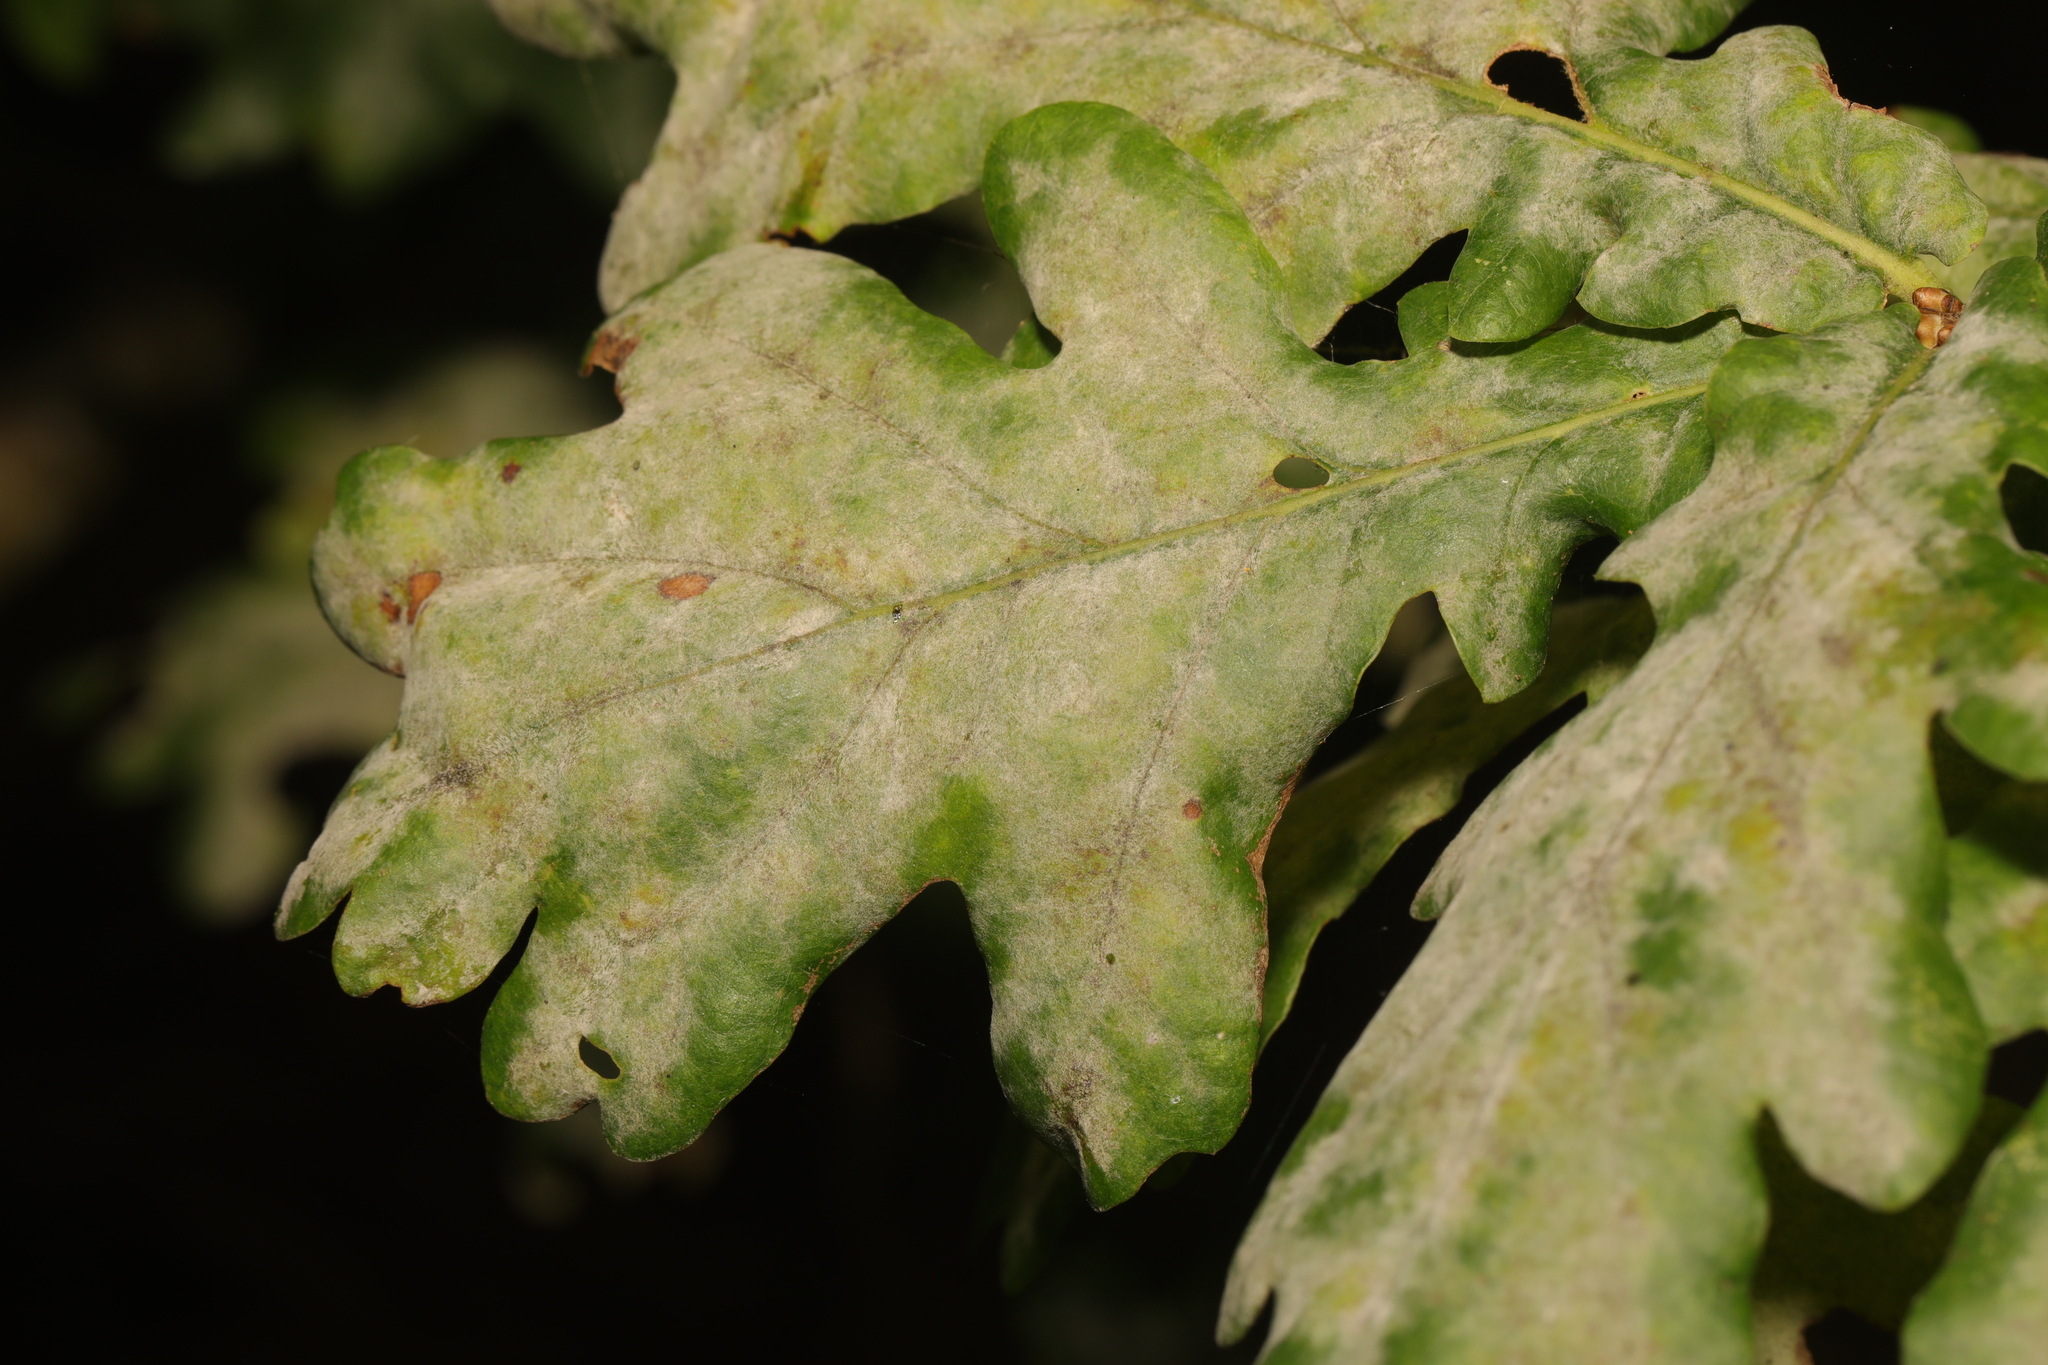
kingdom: Fungi
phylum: Ascomycota
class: Leotiomycetes
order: Helotiales
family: Erysiphaceae
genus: Erysiphe
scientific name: Erysiphe alphitoides
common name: Oak mildew
